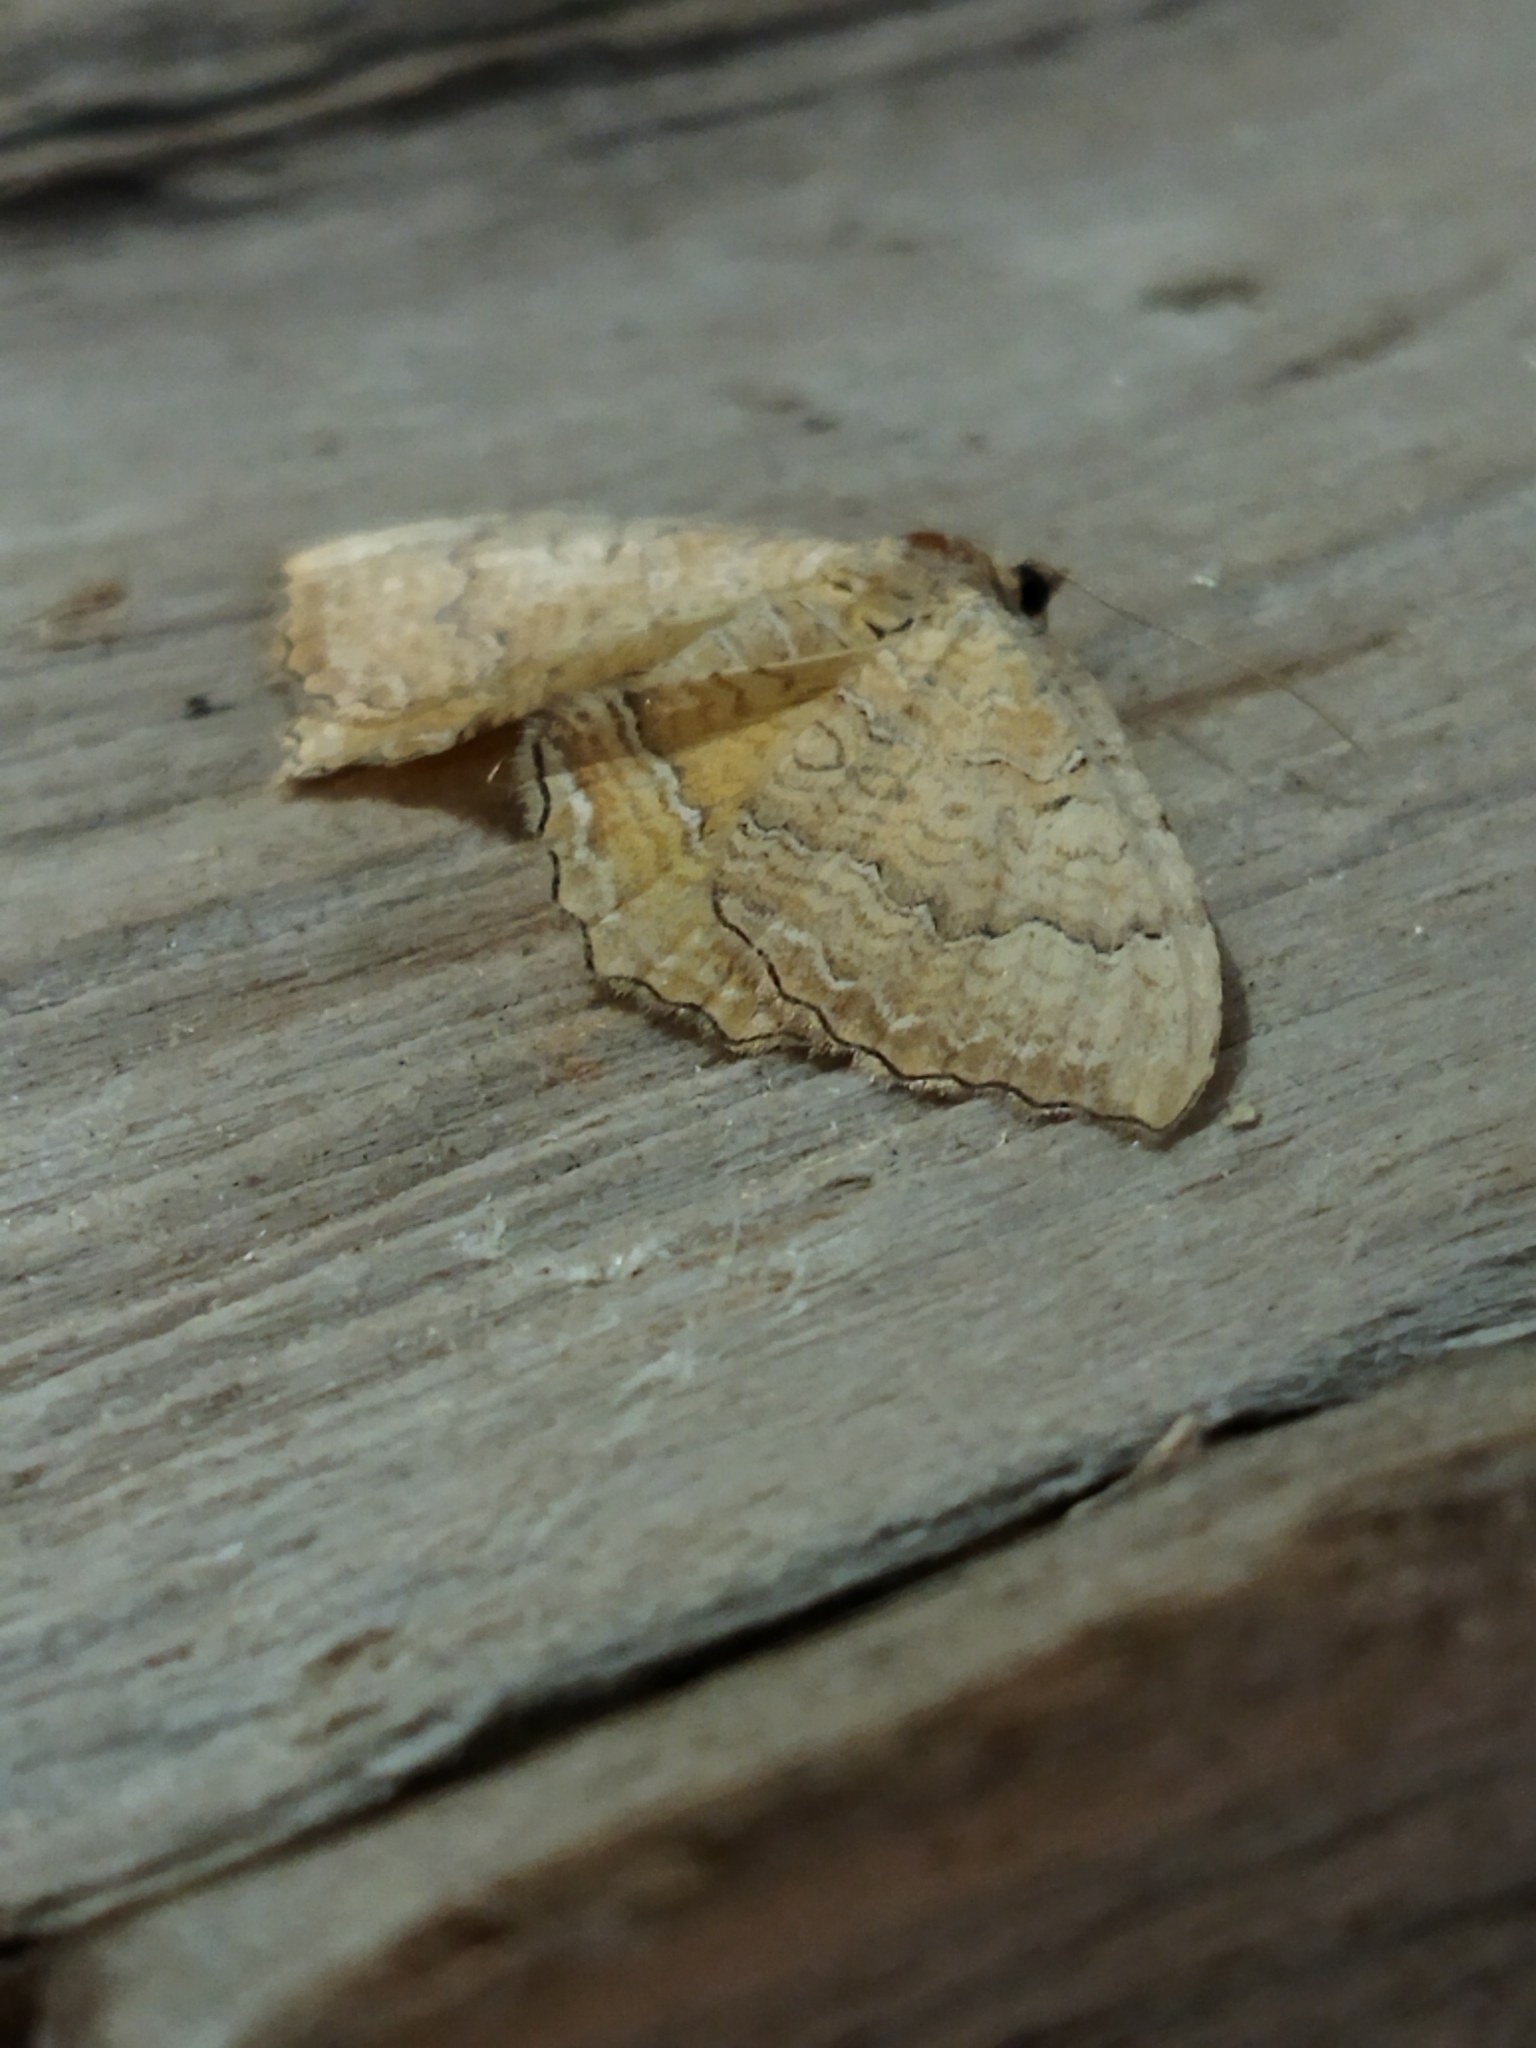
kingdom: Animalia
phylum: Arthropoda
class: Insecta
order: Lepidoptera
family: Geometridae
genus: Camptogramma
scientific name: Camptogramma bilineata
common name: Yellow shell
